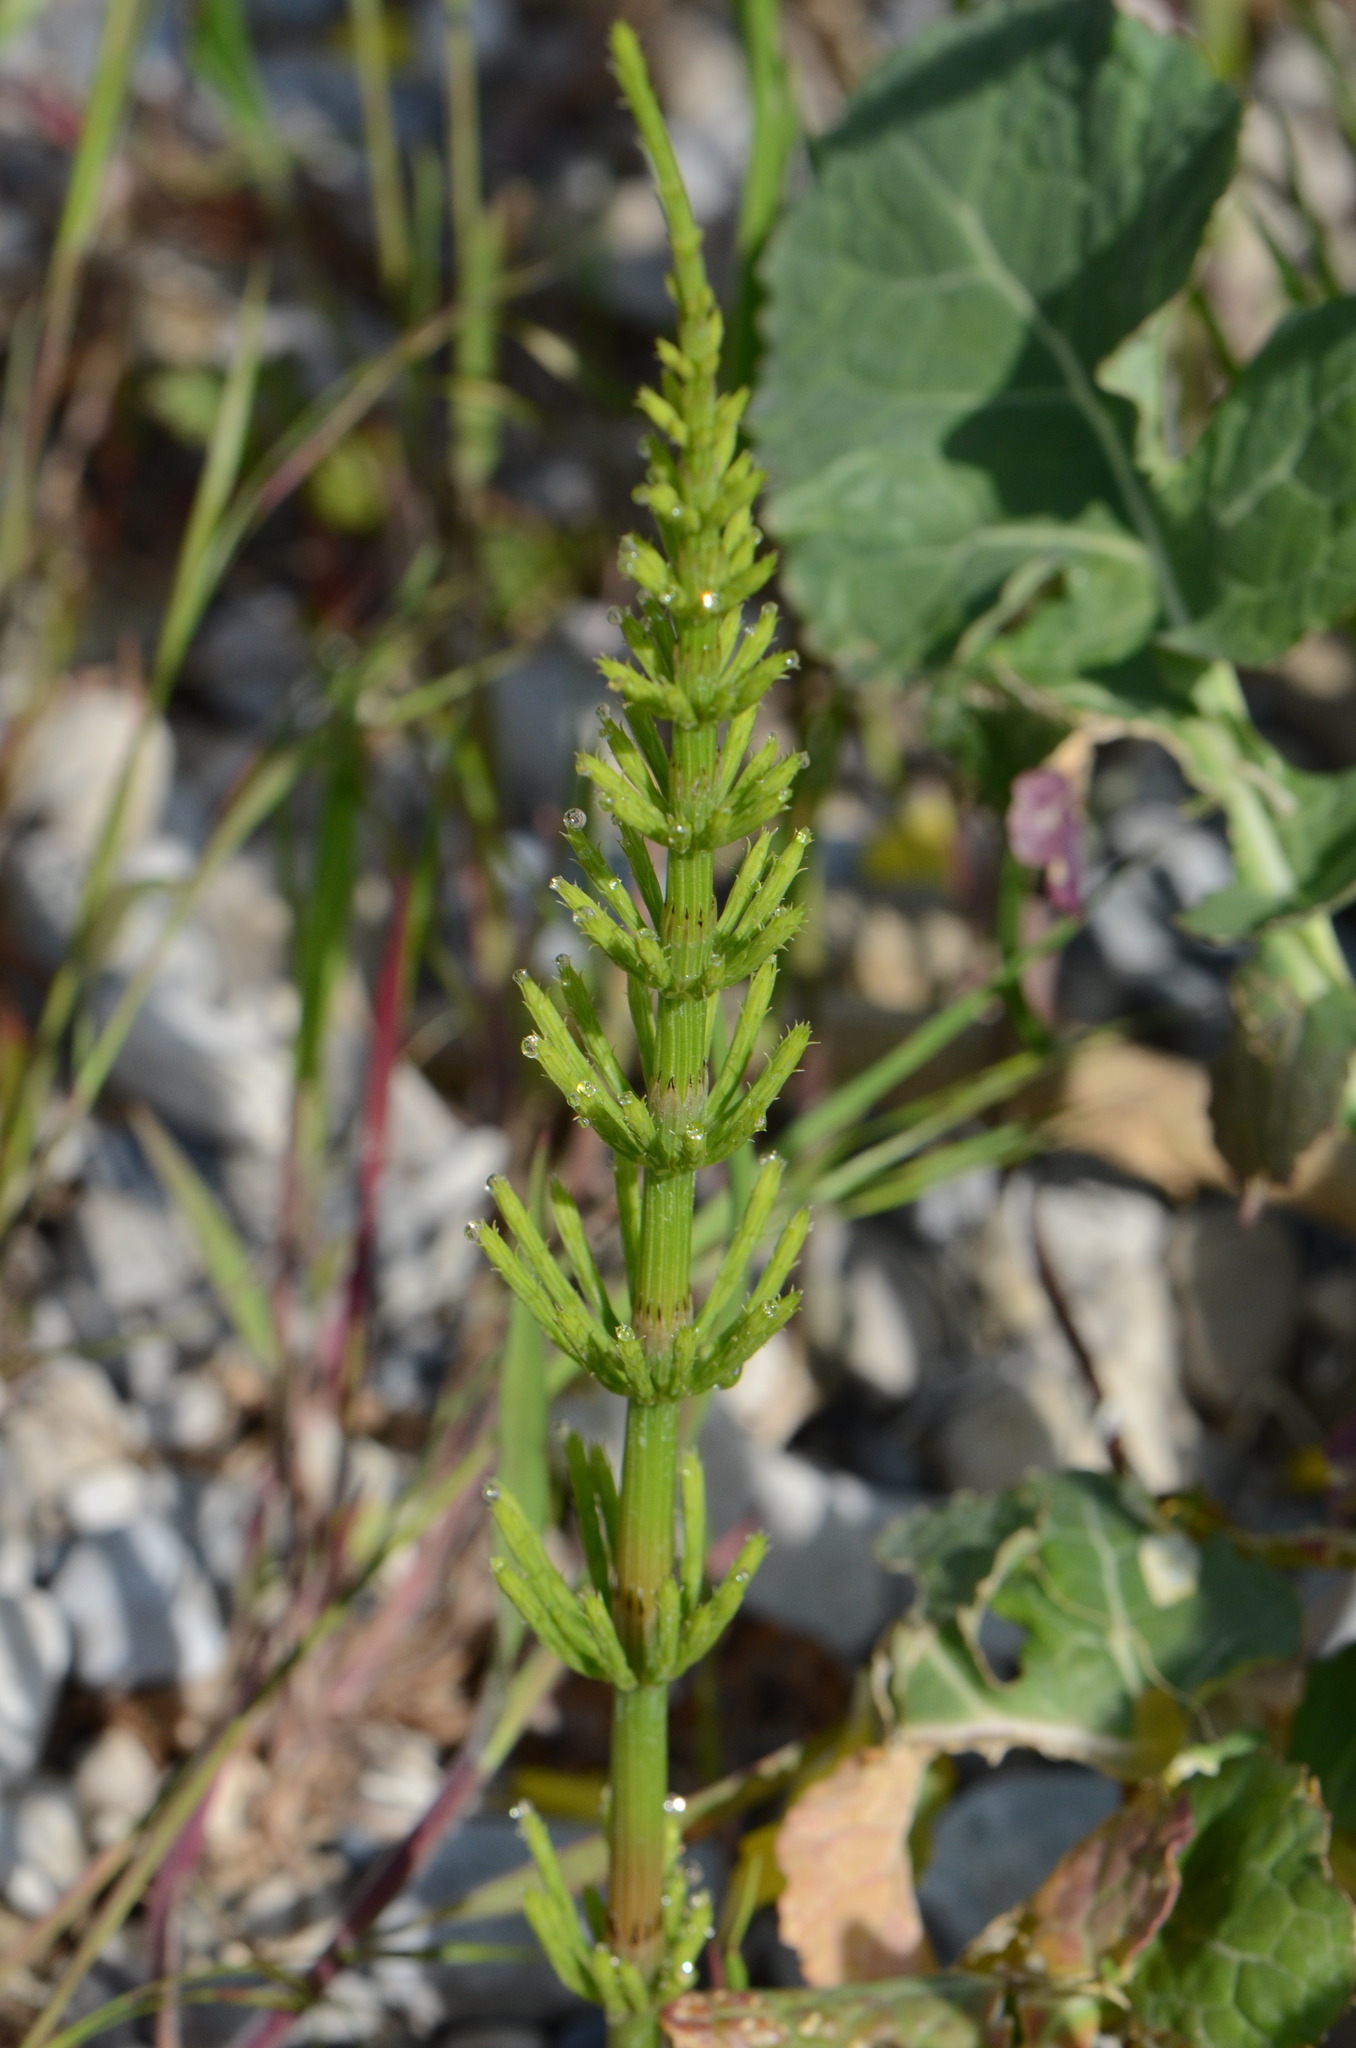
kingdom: Plantae
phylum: Tracheophyta
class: Polypodiopsida
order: Equisetales
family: Equisetaceae
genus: Equisetum
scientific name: Equisetum arvense
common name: Field horsetail
